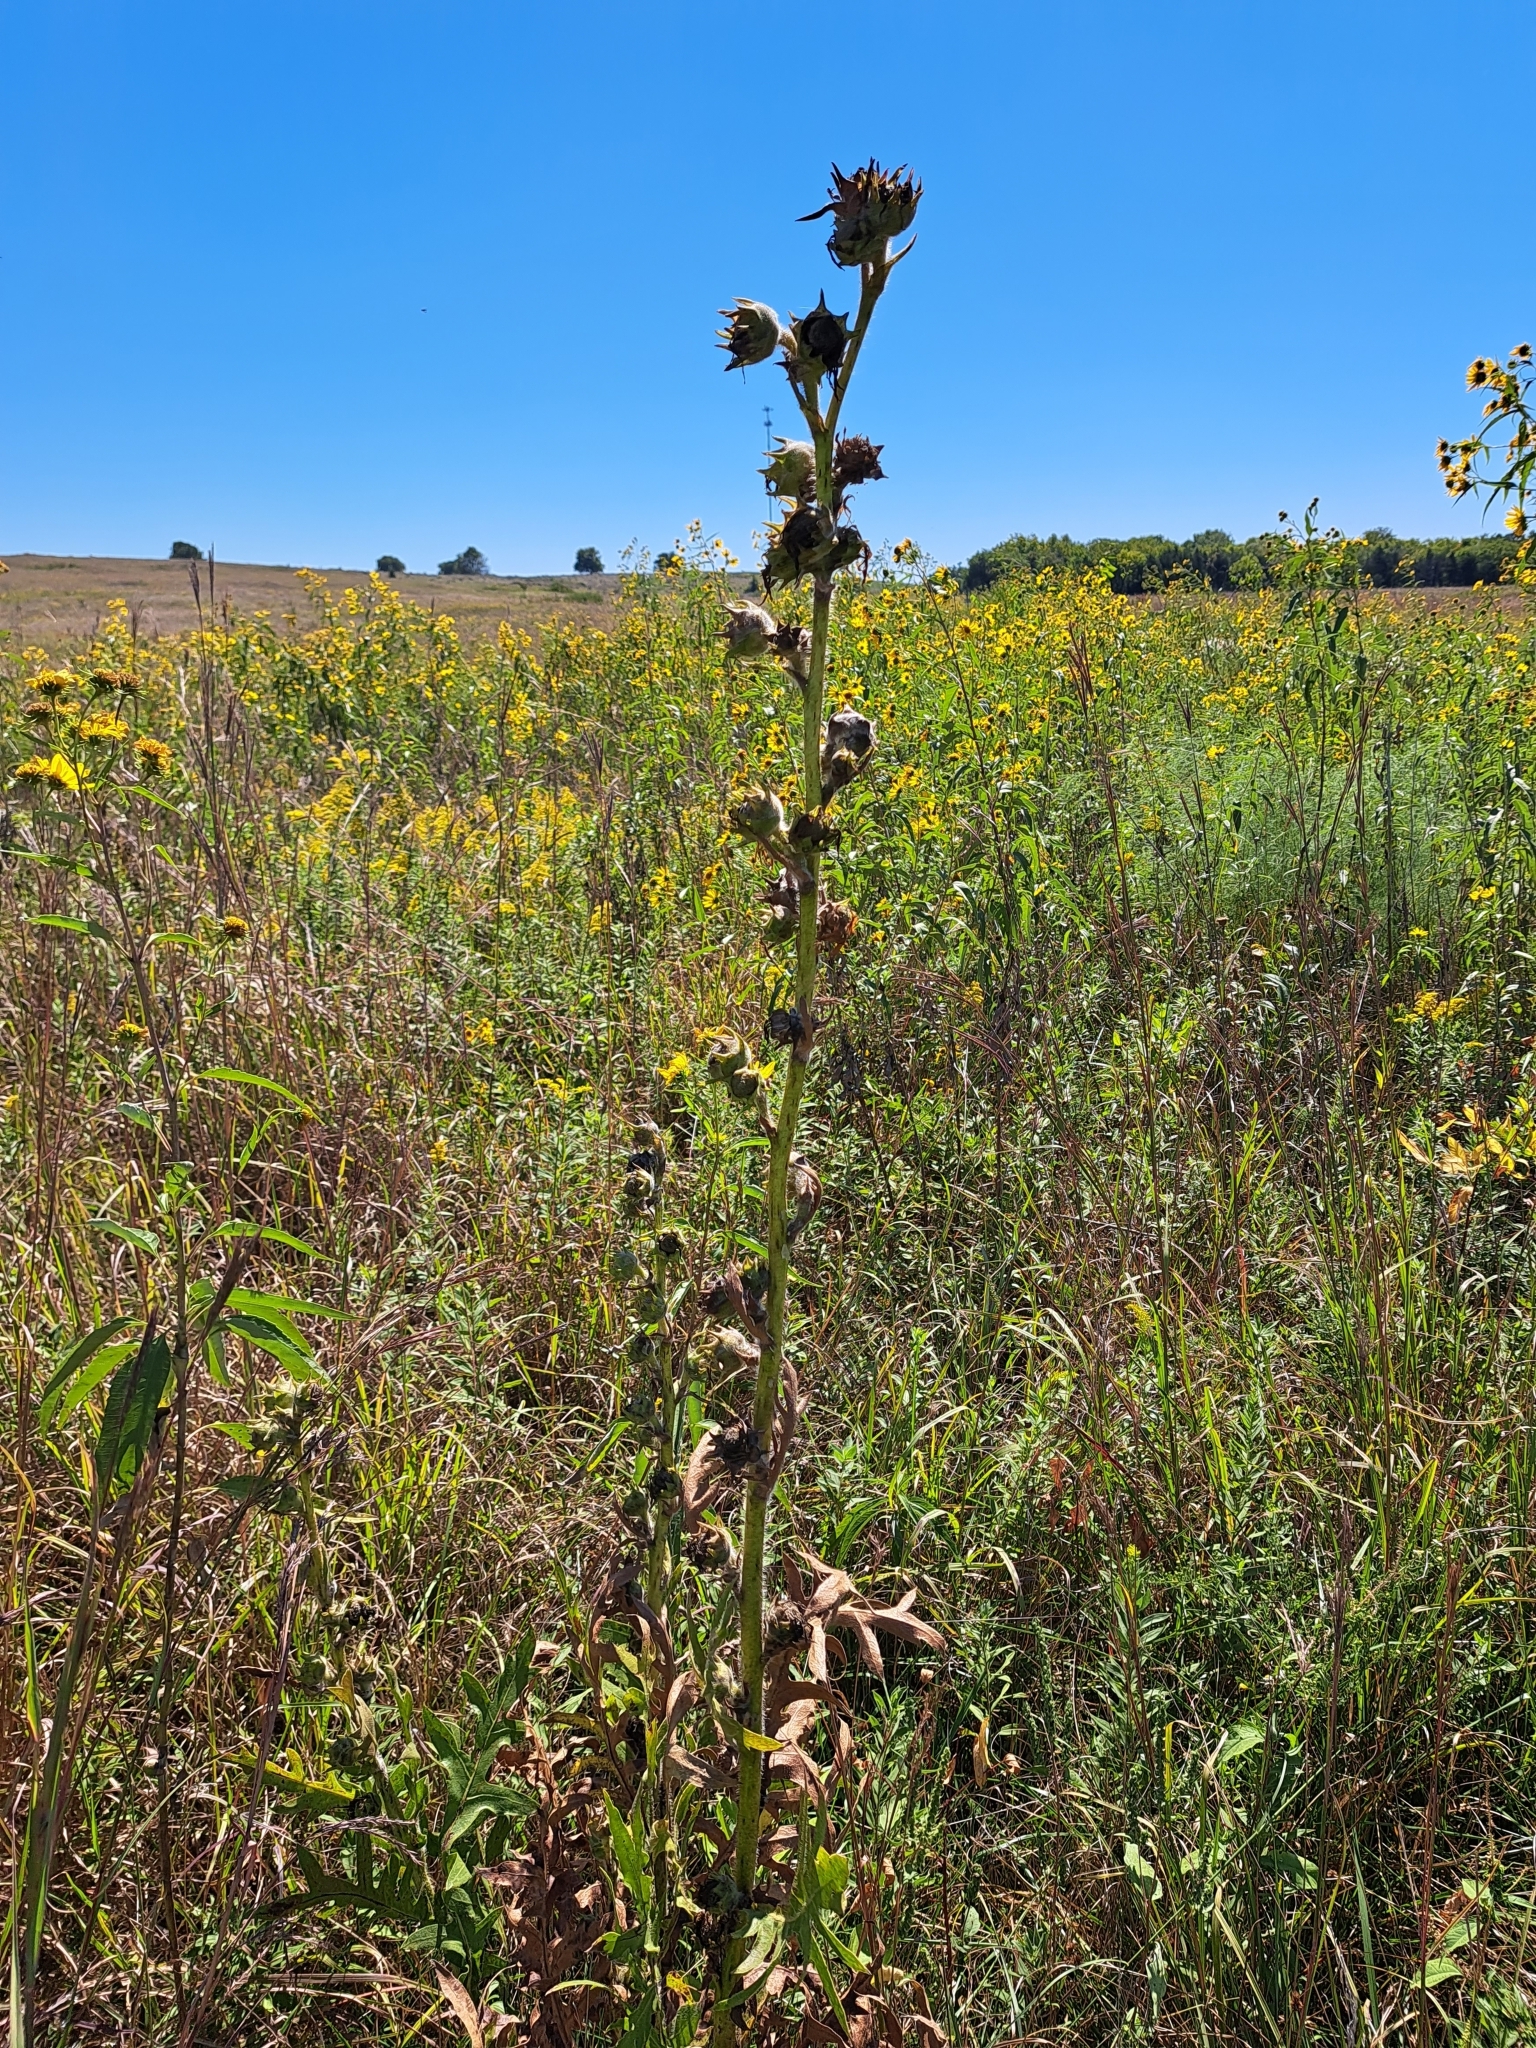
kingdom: Plantae
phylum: Tracheophyta
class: Magnoliopsida
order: Asterales
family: Asteraceae
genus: Silphium
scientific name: Silphium laciniatum
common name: Polarplant
